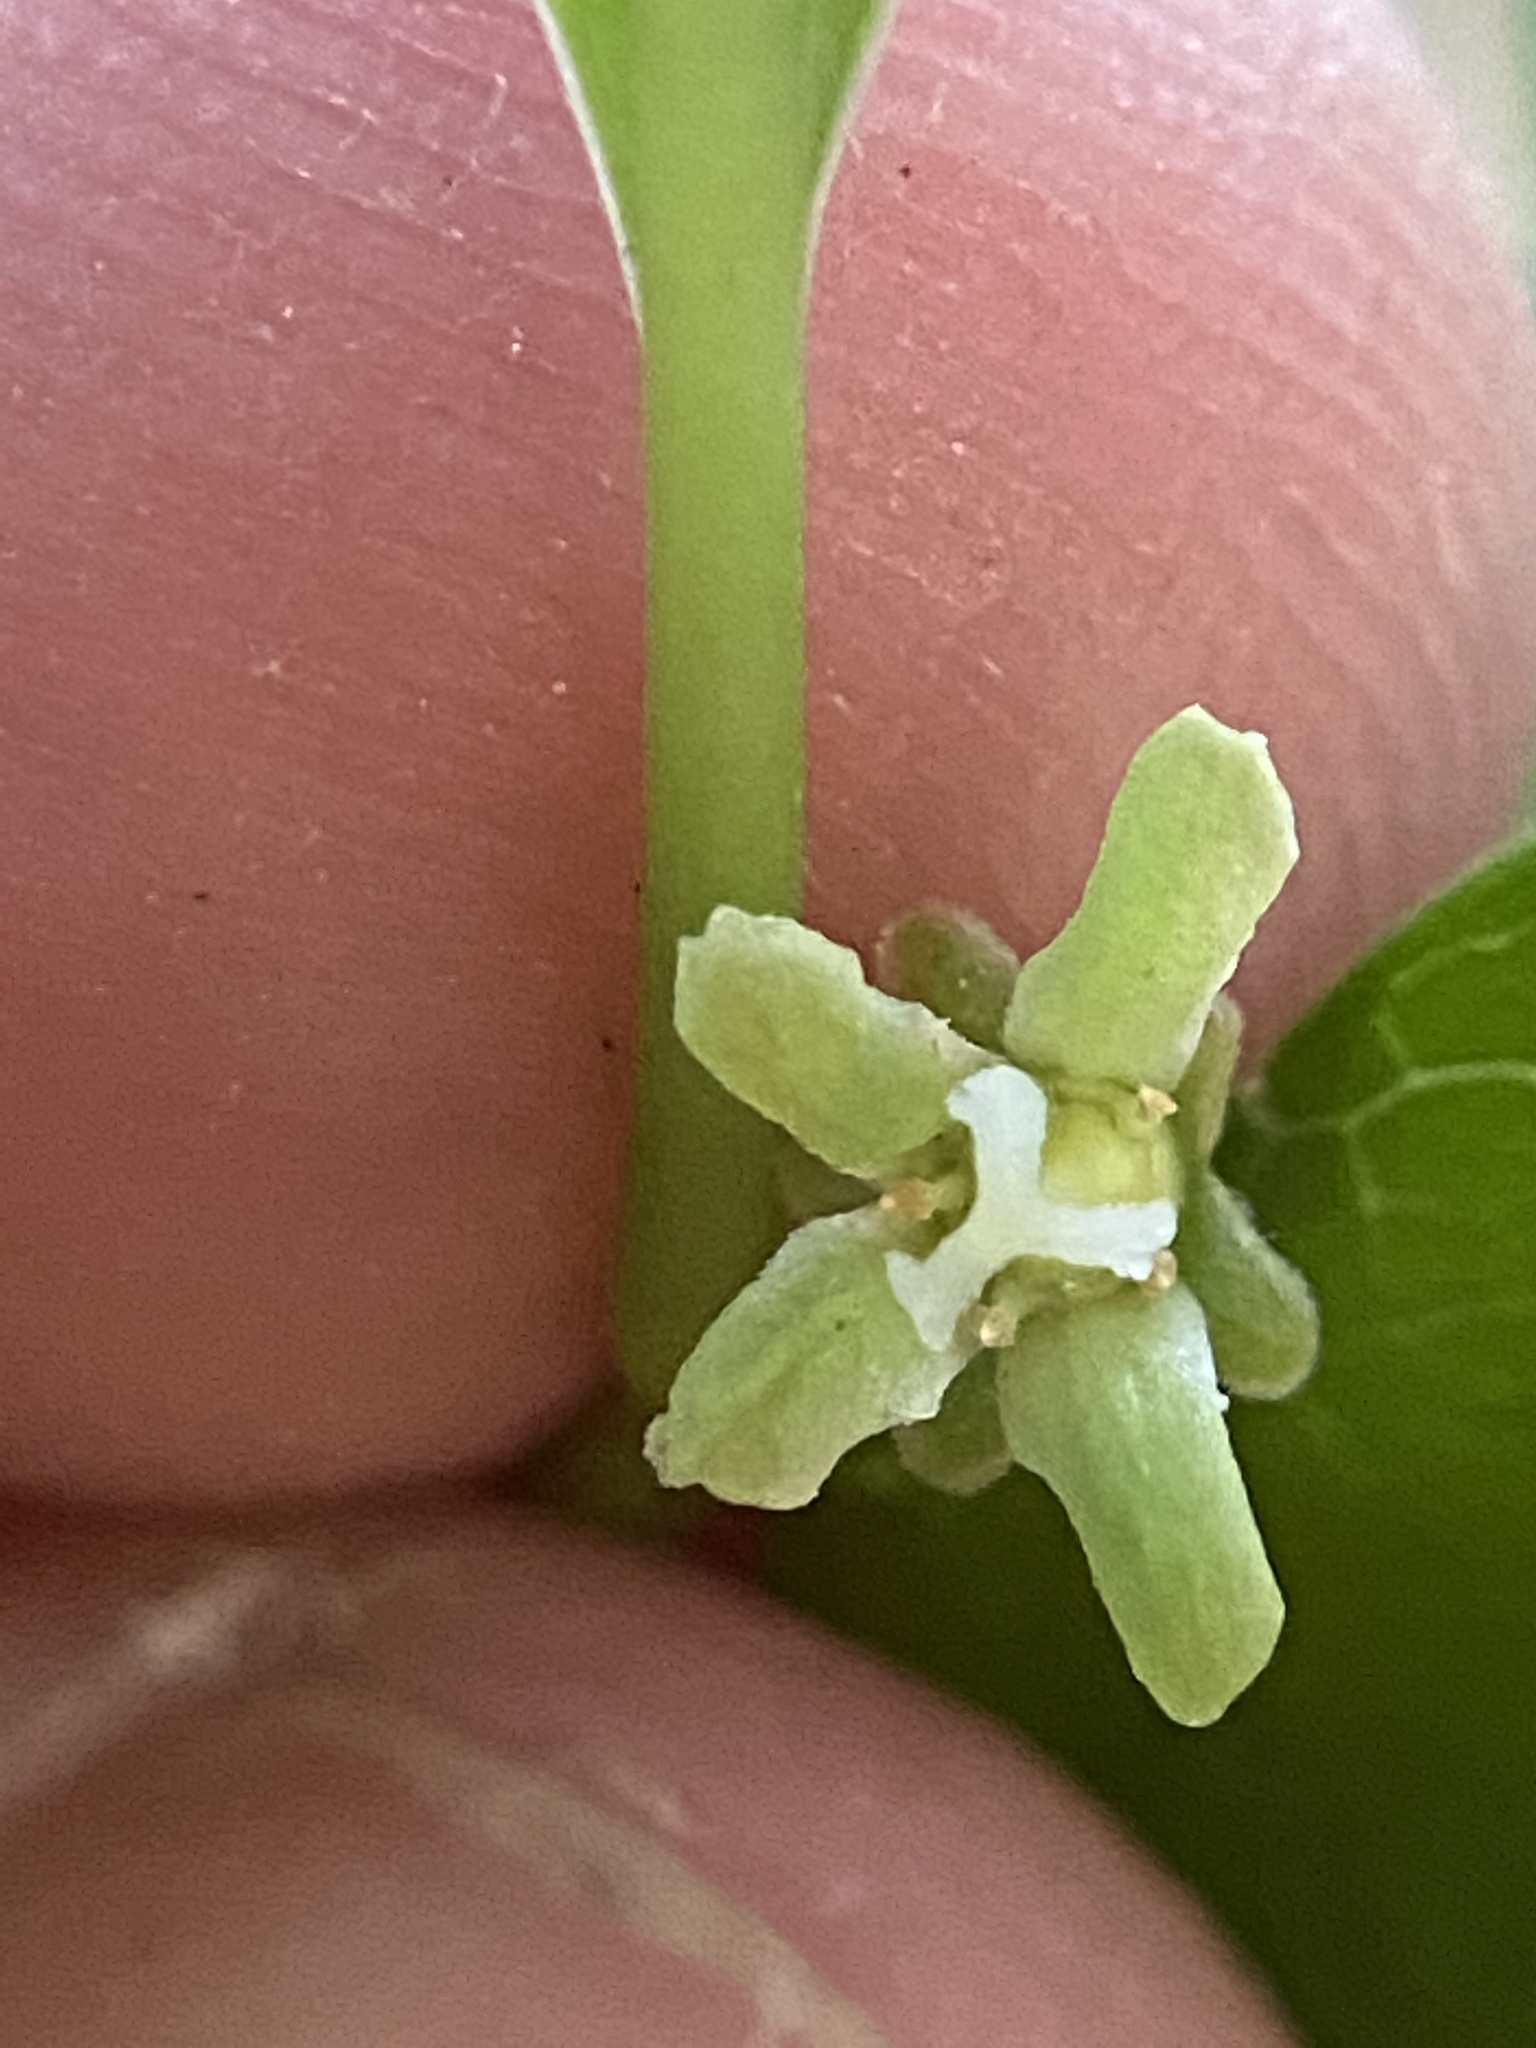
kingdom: Plantae
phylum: Tracheophyta
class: Magnoliopsida
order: Celastrales
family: Celastraceae
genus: Celastrus
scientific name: Celastrus orbiculatus
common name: Oriental bittersweet
